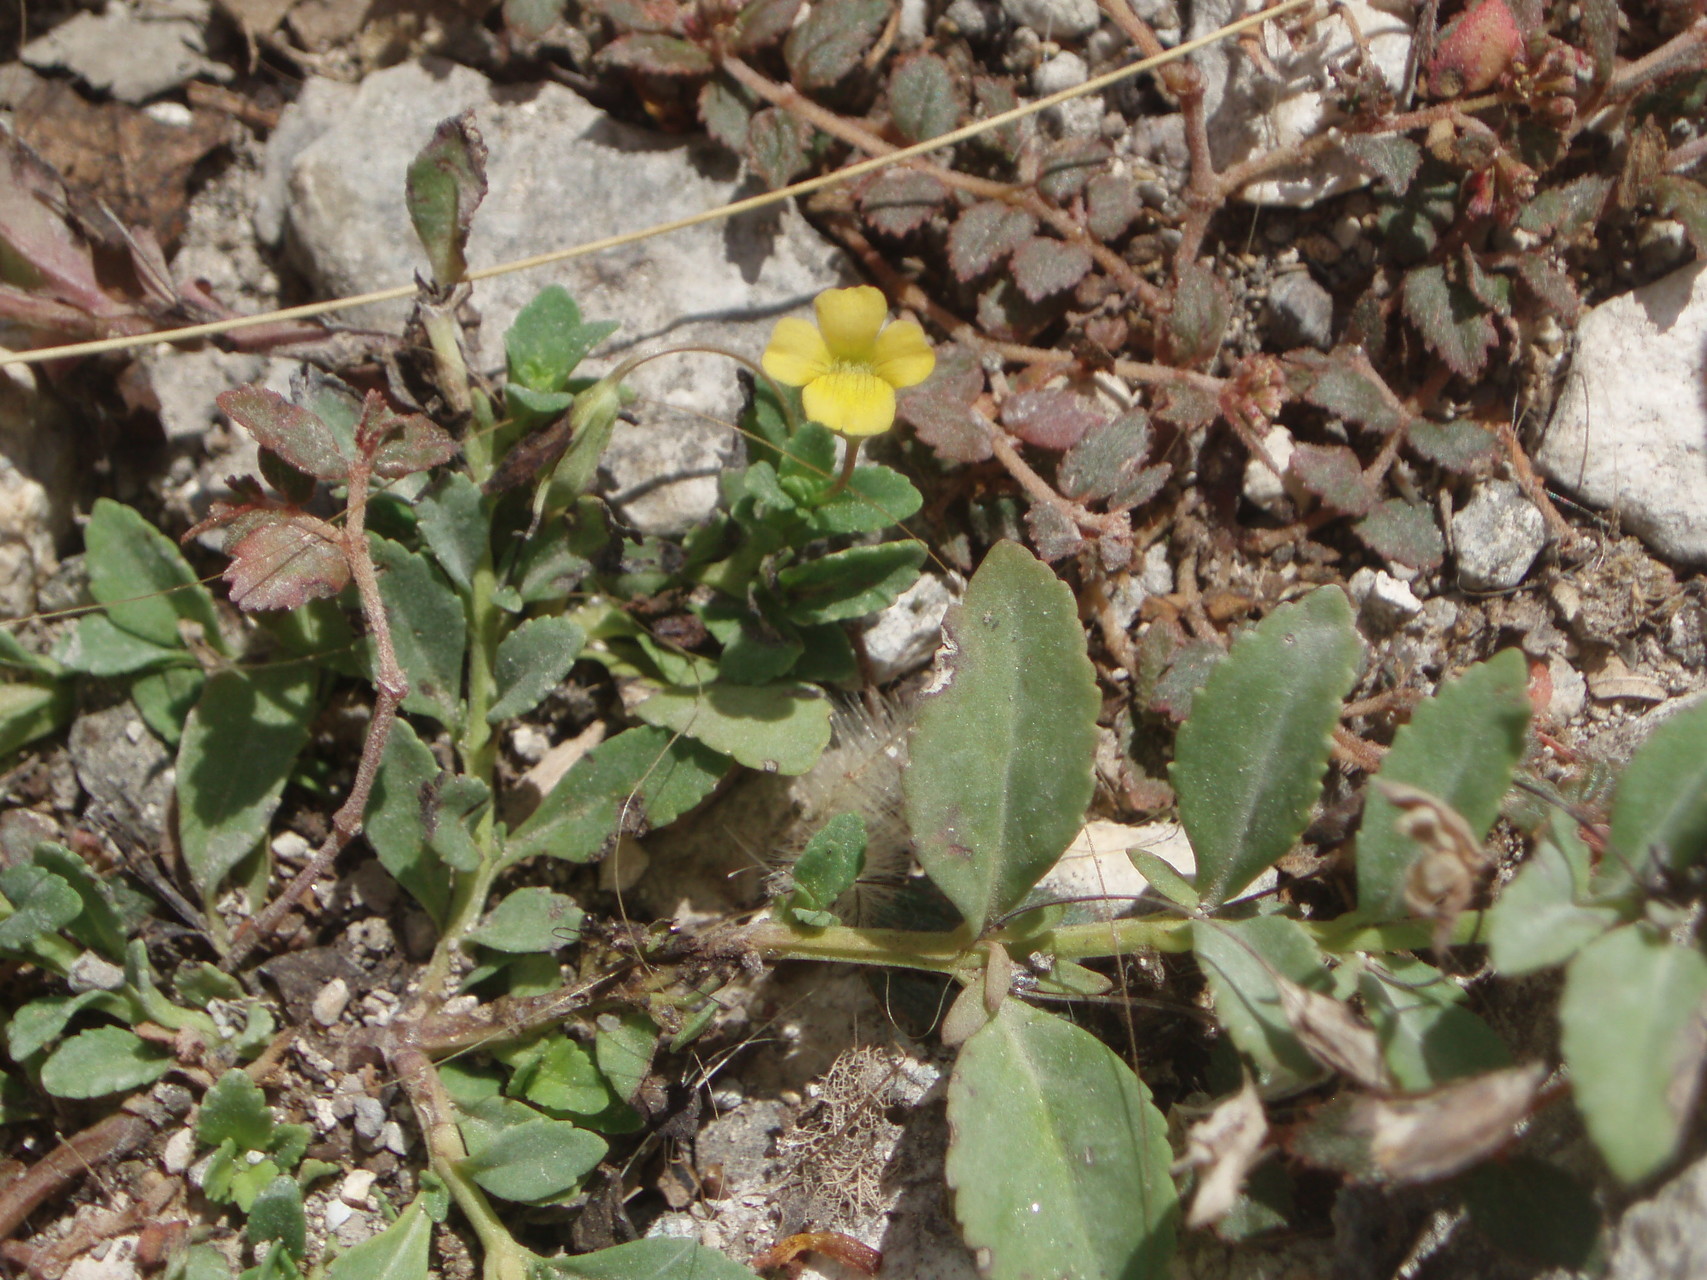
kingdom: Plantae
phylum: Tracheophyta
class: Magnoliopsida
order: Lamiales
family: Plantaginaceae
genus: Mecardonia
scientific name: Mecardonia procumbens
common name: Baby jump-up
